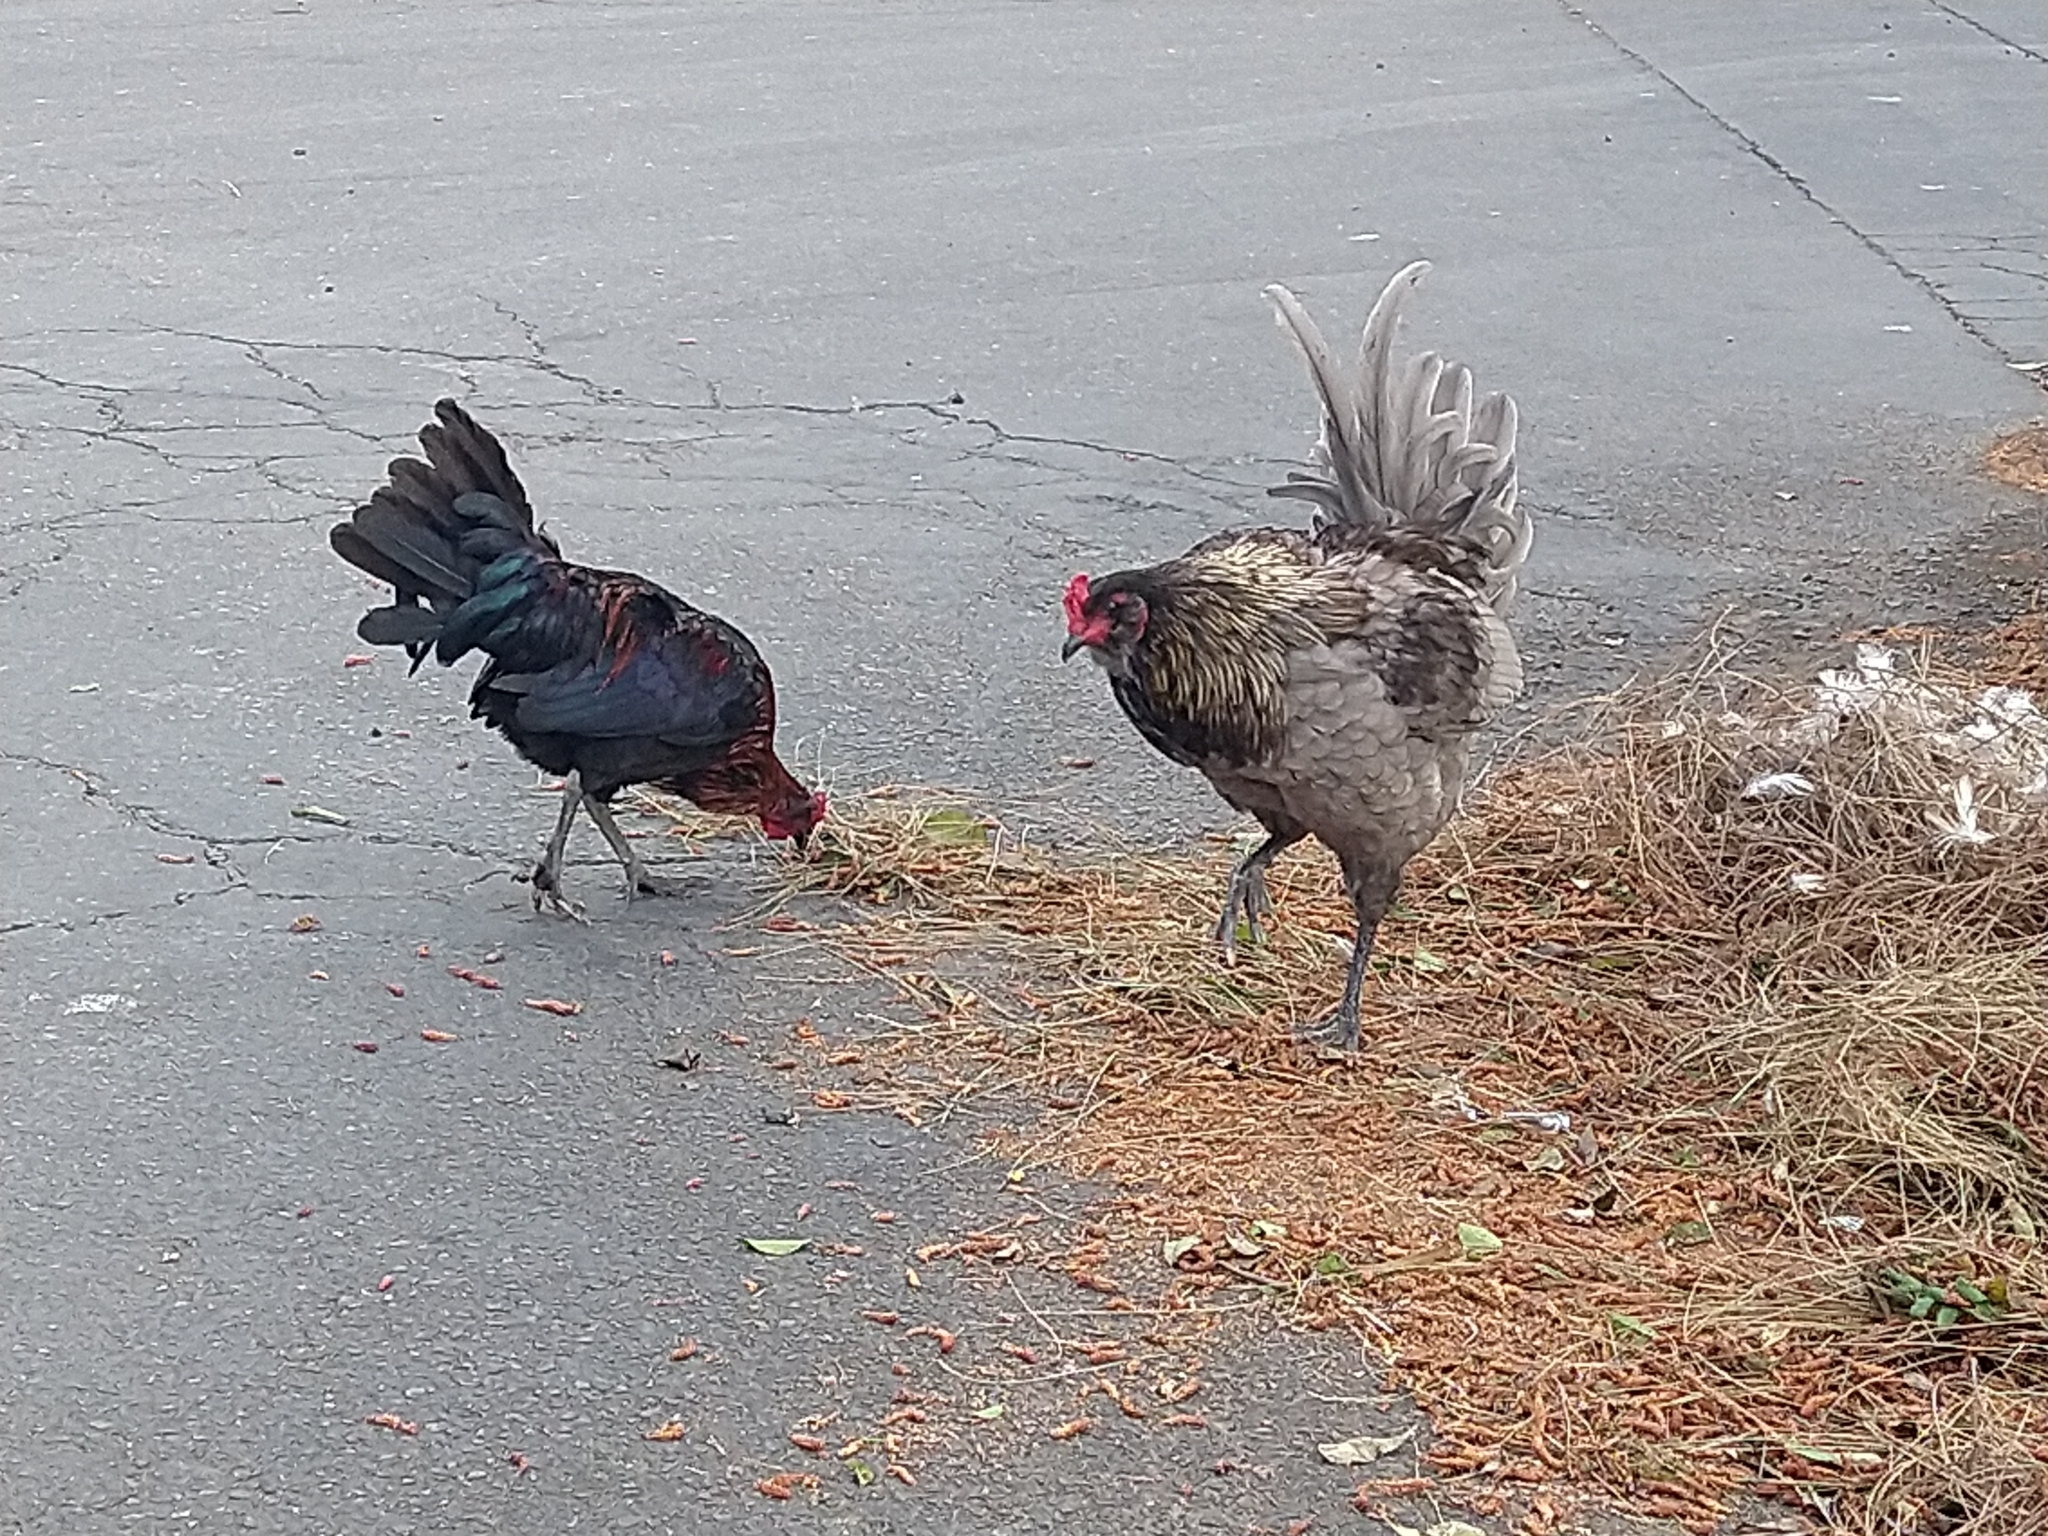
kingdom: Animalia
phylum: Chordata
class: Aves
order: Galliformes
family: Phasianidae
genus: Gallus
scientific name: Gallus gallus
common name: Red junglefowl
